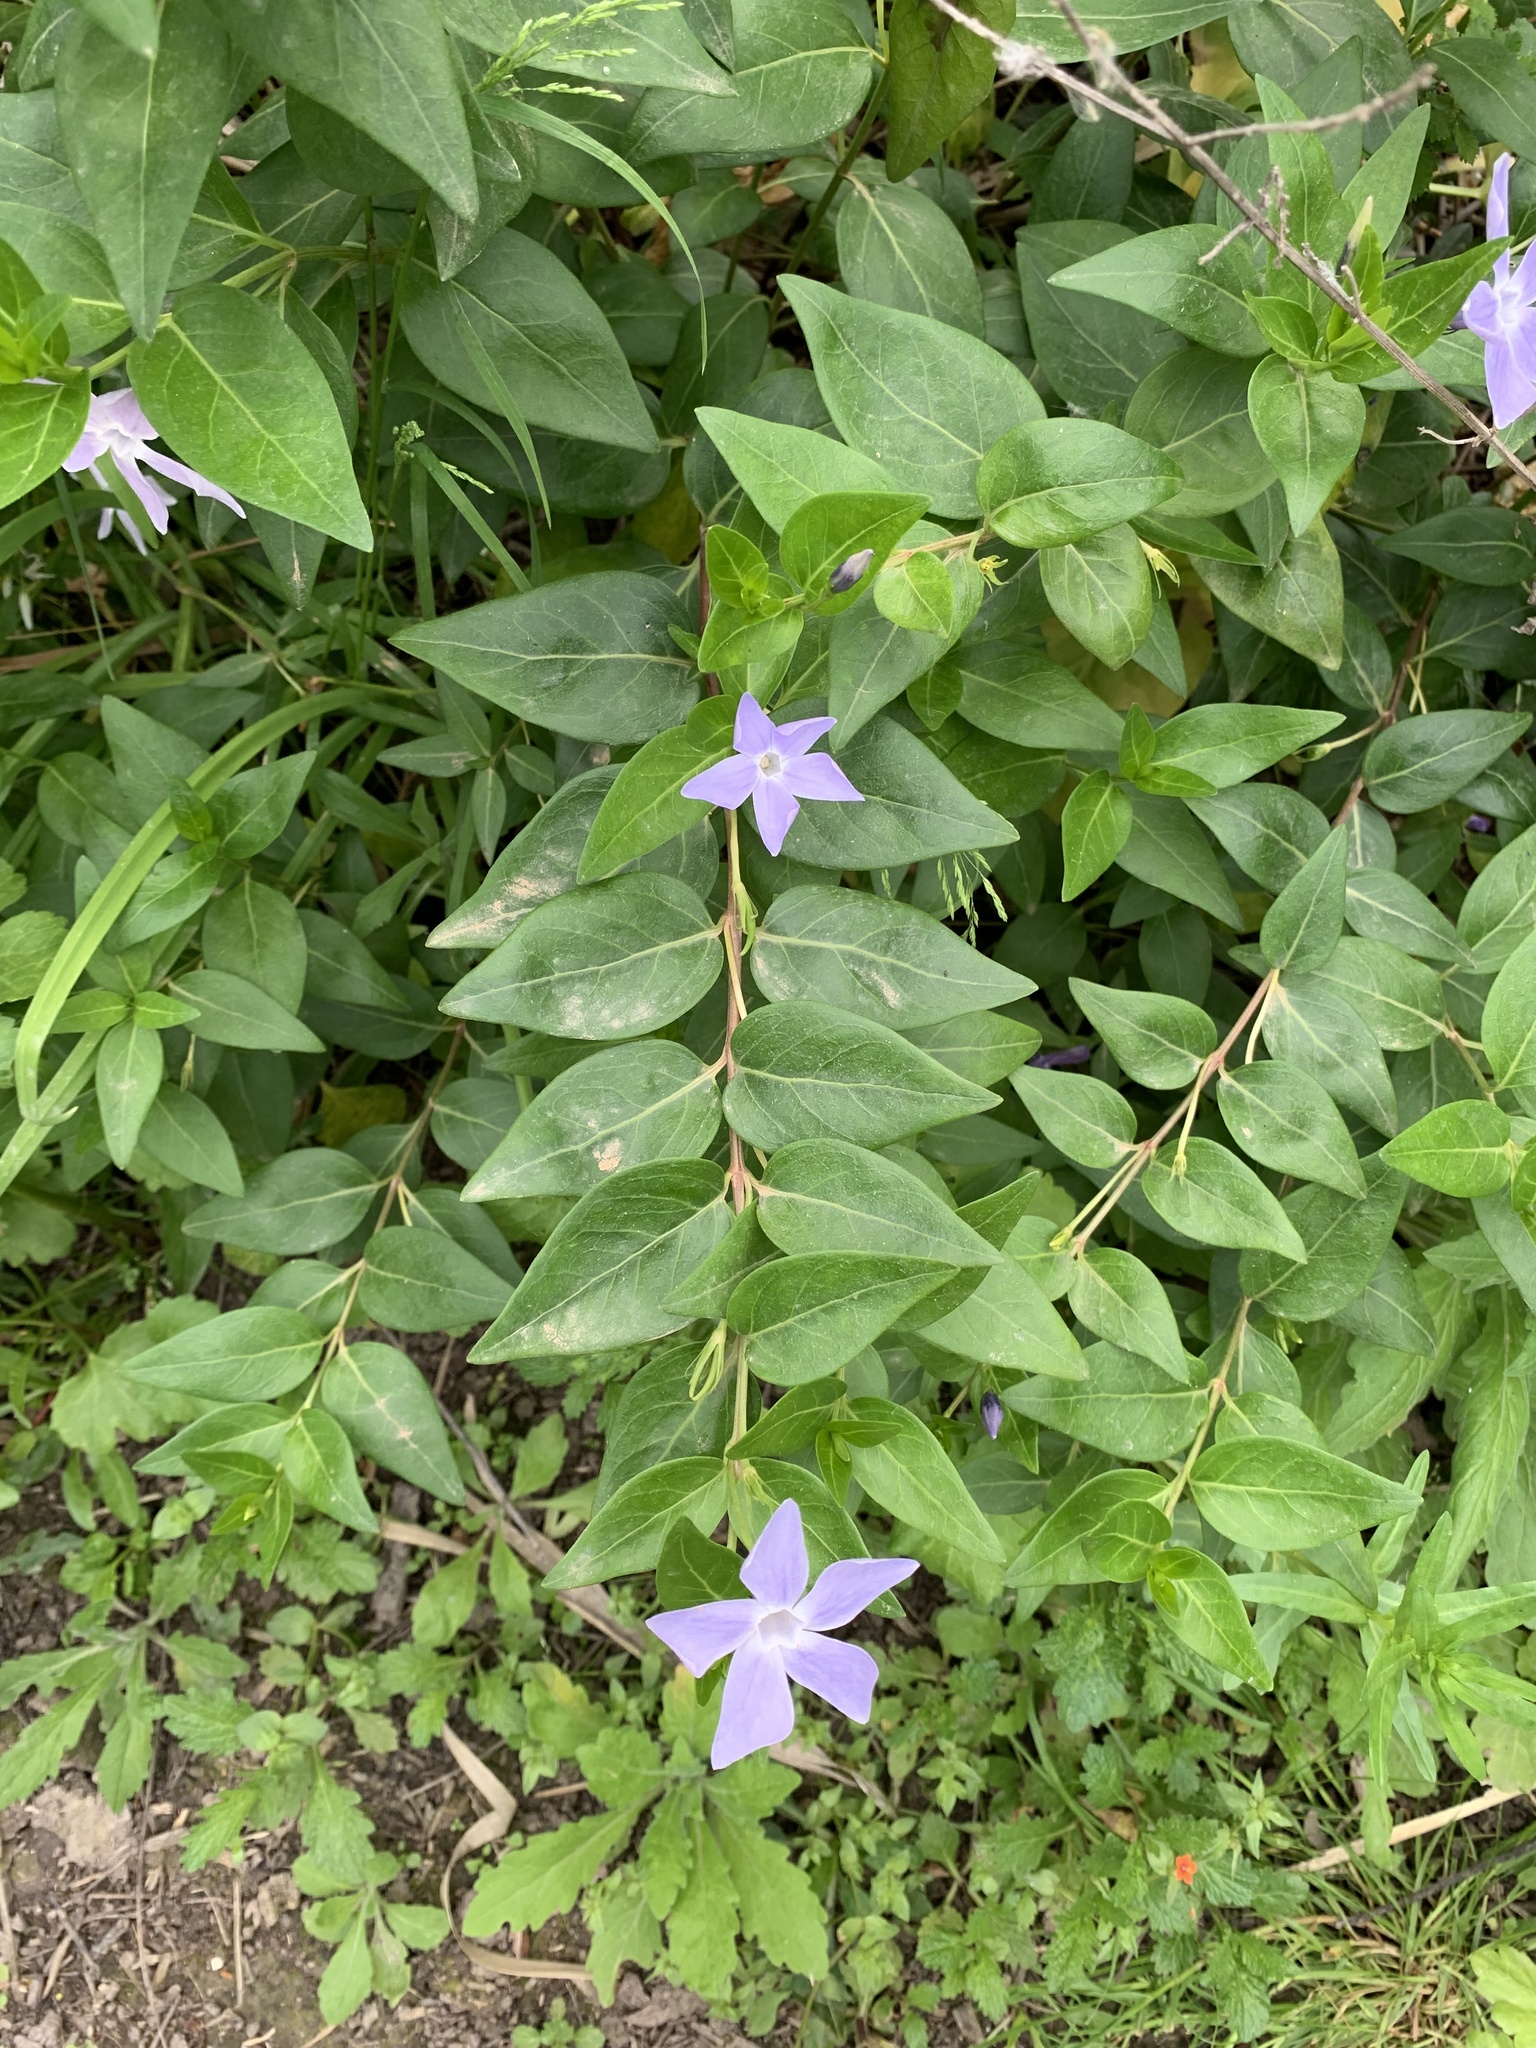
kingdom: Plantae
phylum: Tracheophyta
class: Magnoliopsida
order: Gentianales
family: Apocynaceae
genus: Vinca
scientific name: Vinca difformis
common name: Intermediate periwinkle
